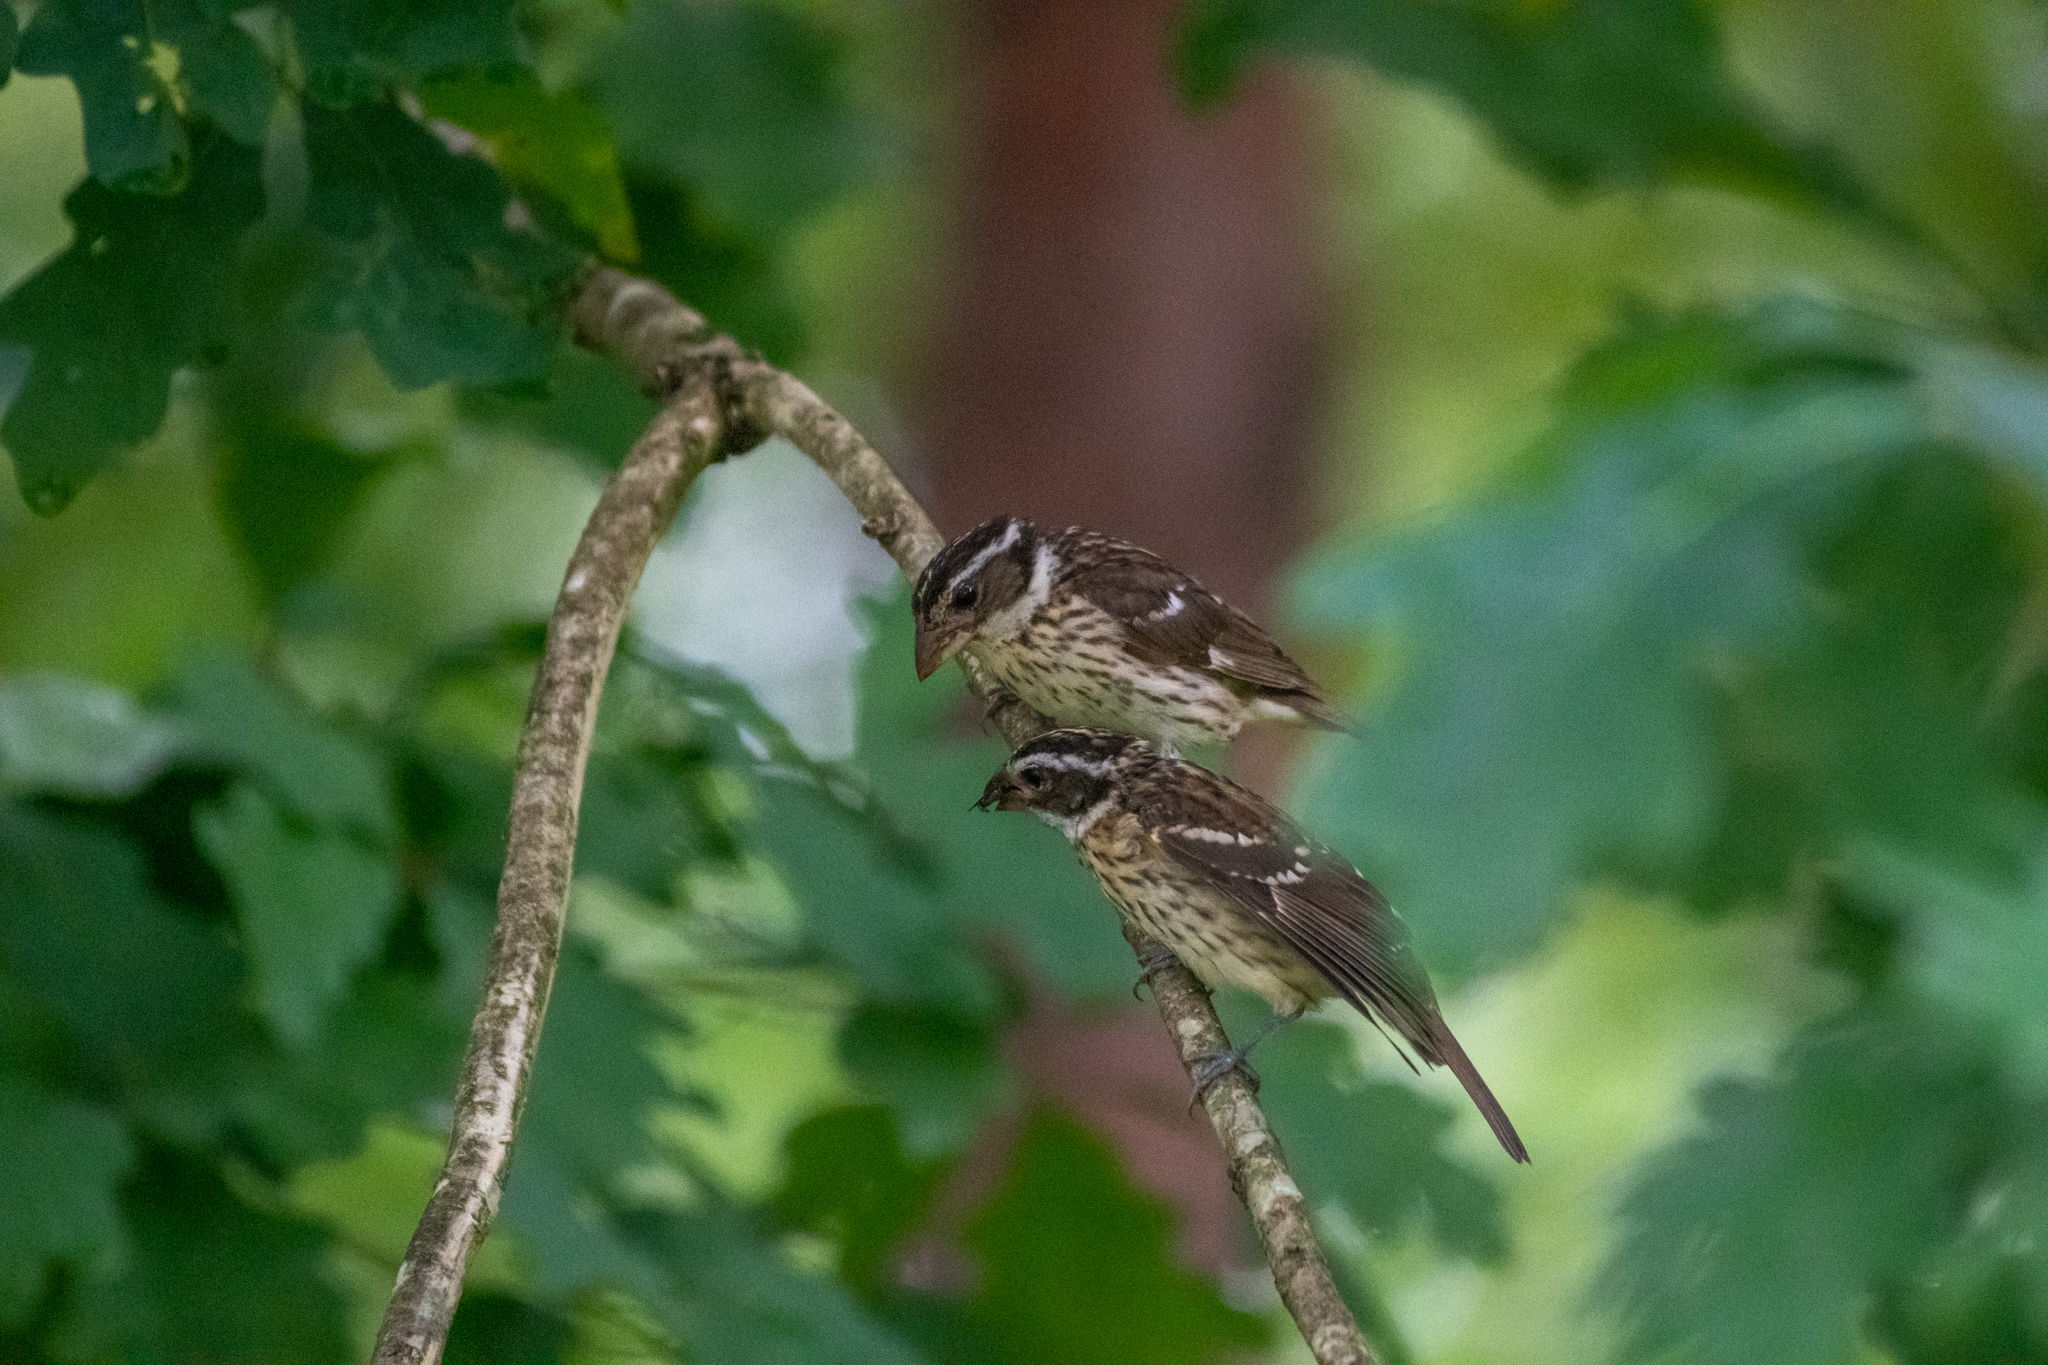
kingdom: Animalia
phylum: Chordata
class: Aves
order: Passeriformes
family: Cardinalidae
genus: Pheucticus
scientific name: Pheucticus ludovicianus
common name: Rose-breasted grosbeak
